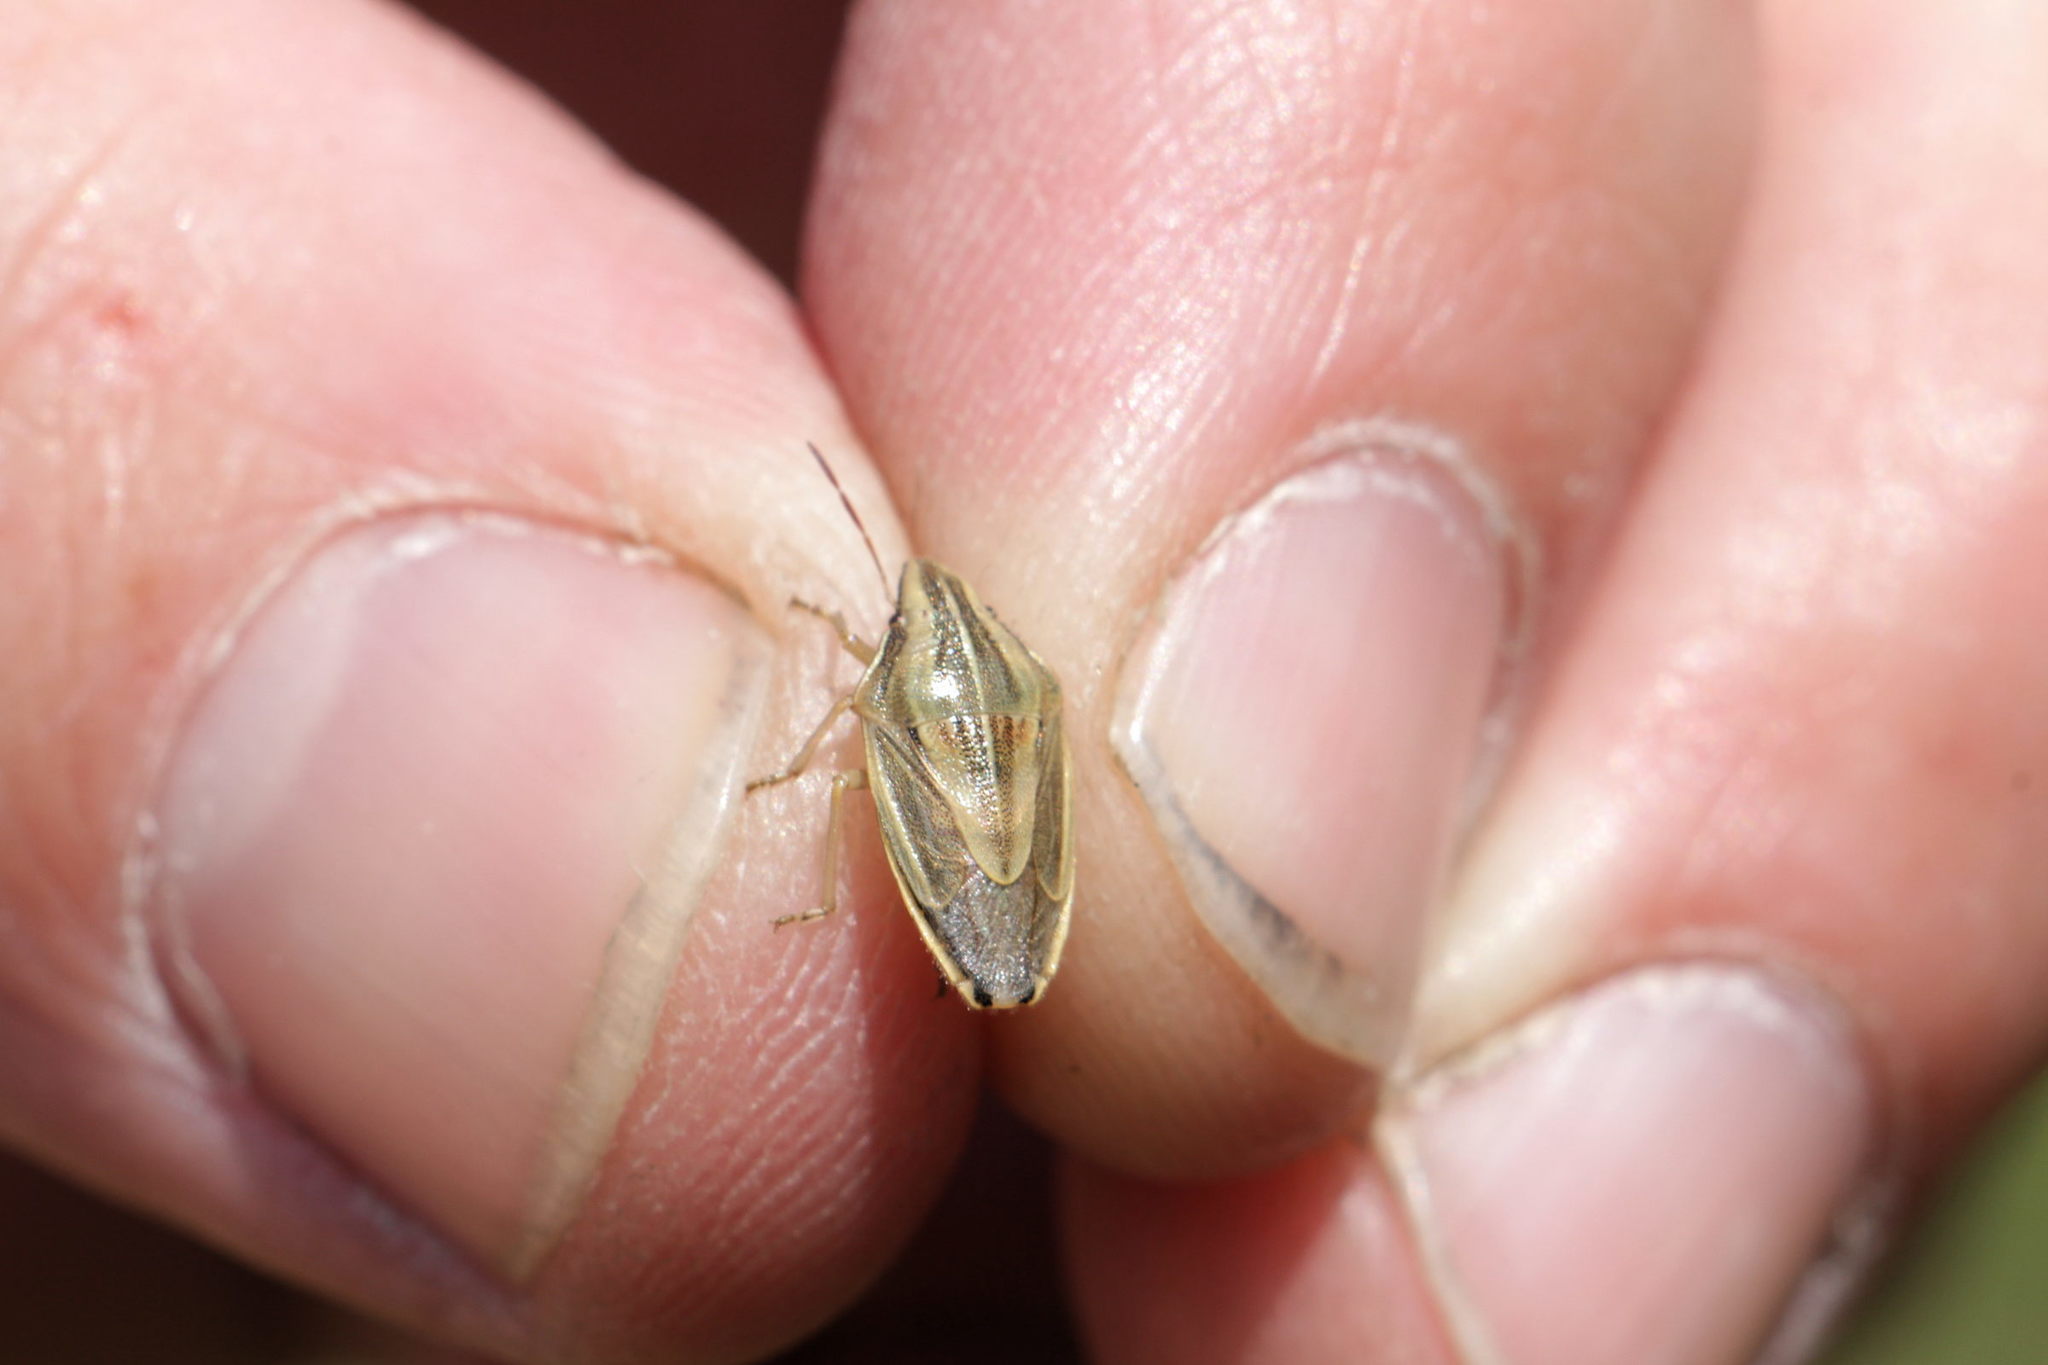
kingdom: Animalia
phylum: Arthropoda
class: Insecta
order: Hemiptera
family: Pentatomidae
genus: Aelia
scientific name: Aelia acuminata
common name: Bishop's mitre
